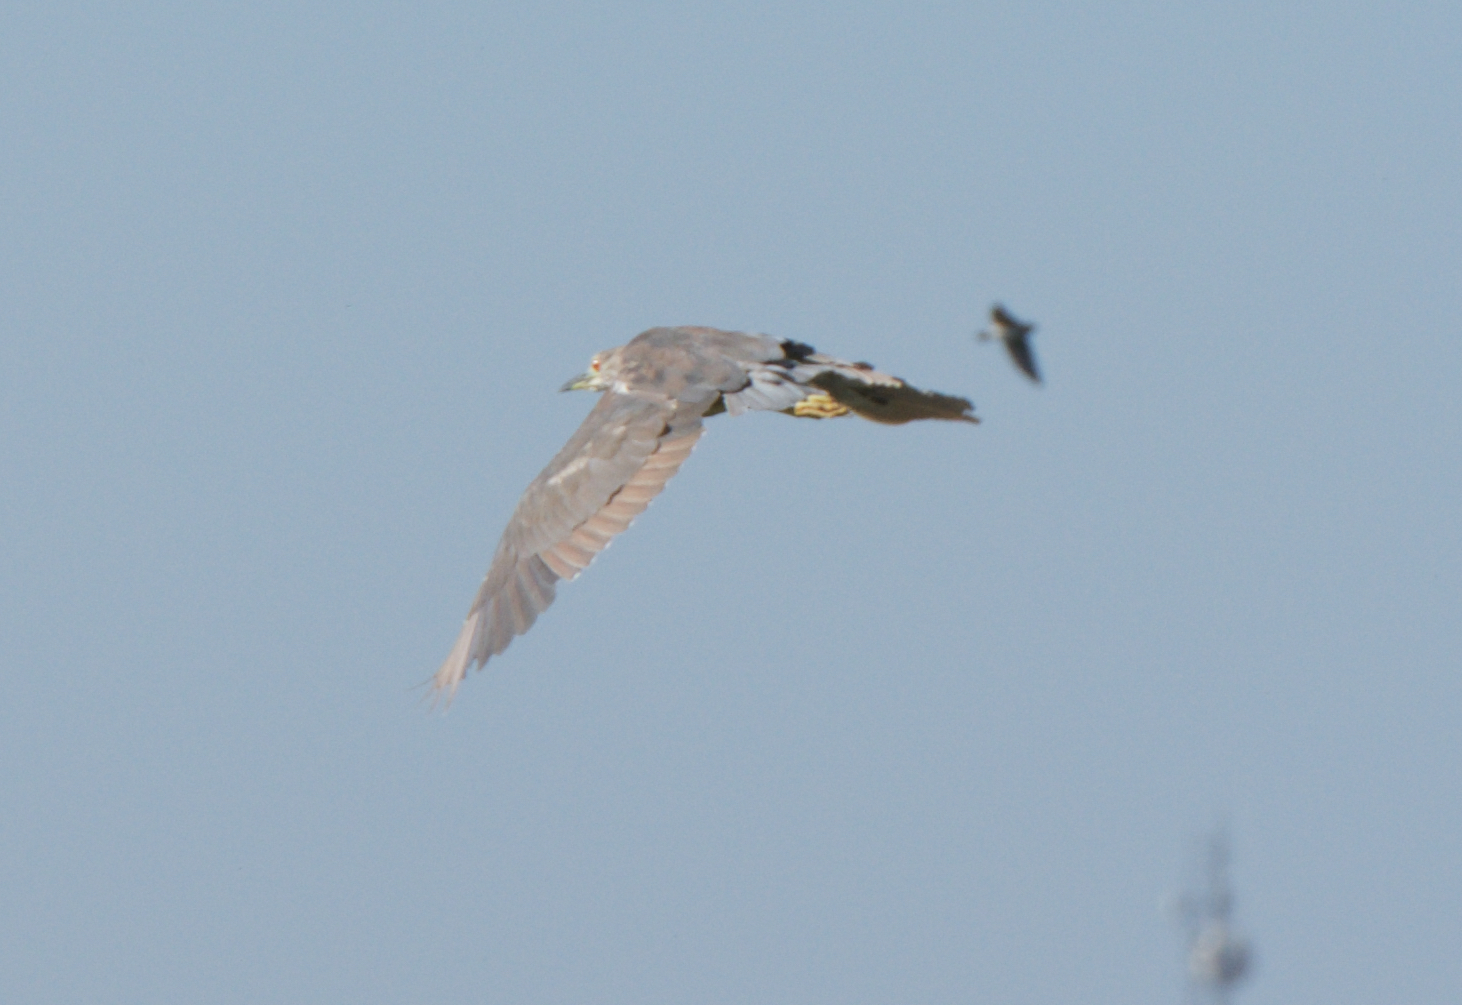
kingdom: Animalia
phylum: Chordata
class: Aves
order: Pelecaniformes
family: Ardeidae
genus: Nycticorax
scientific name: Nycticorax nycticorax
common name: Black-crowned night heron
